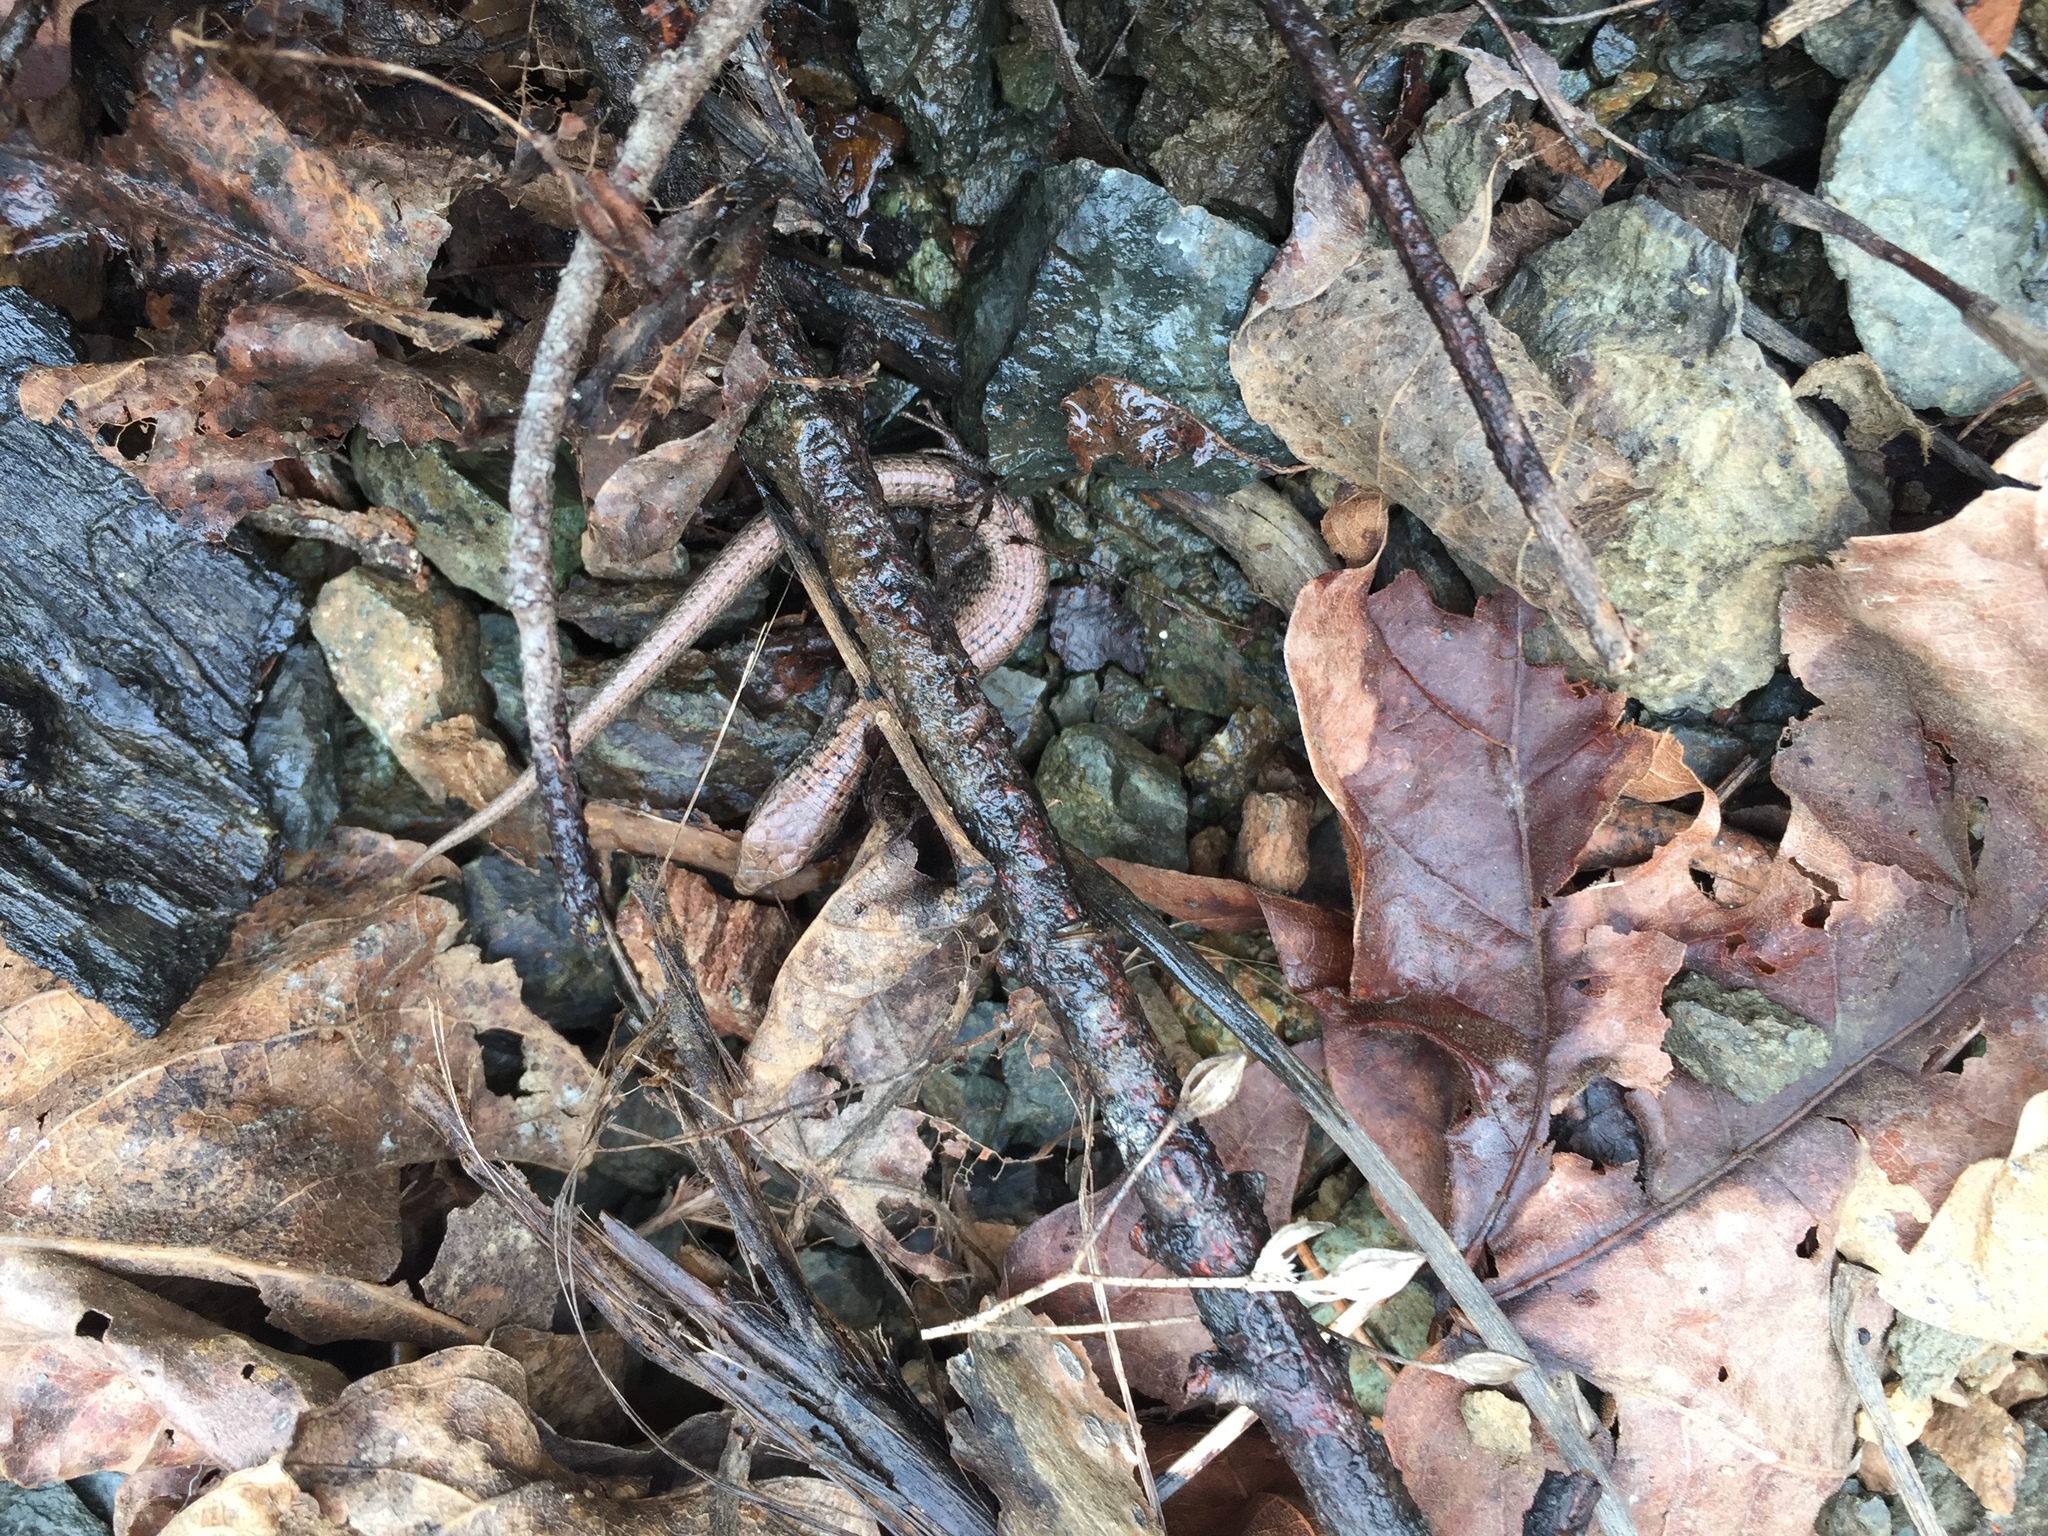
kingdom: Animalia
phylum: Chordata
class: Squamata
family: Anguidae
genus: Elgaria
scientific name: Elgaria coerulea
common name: Northern alligator lizard
